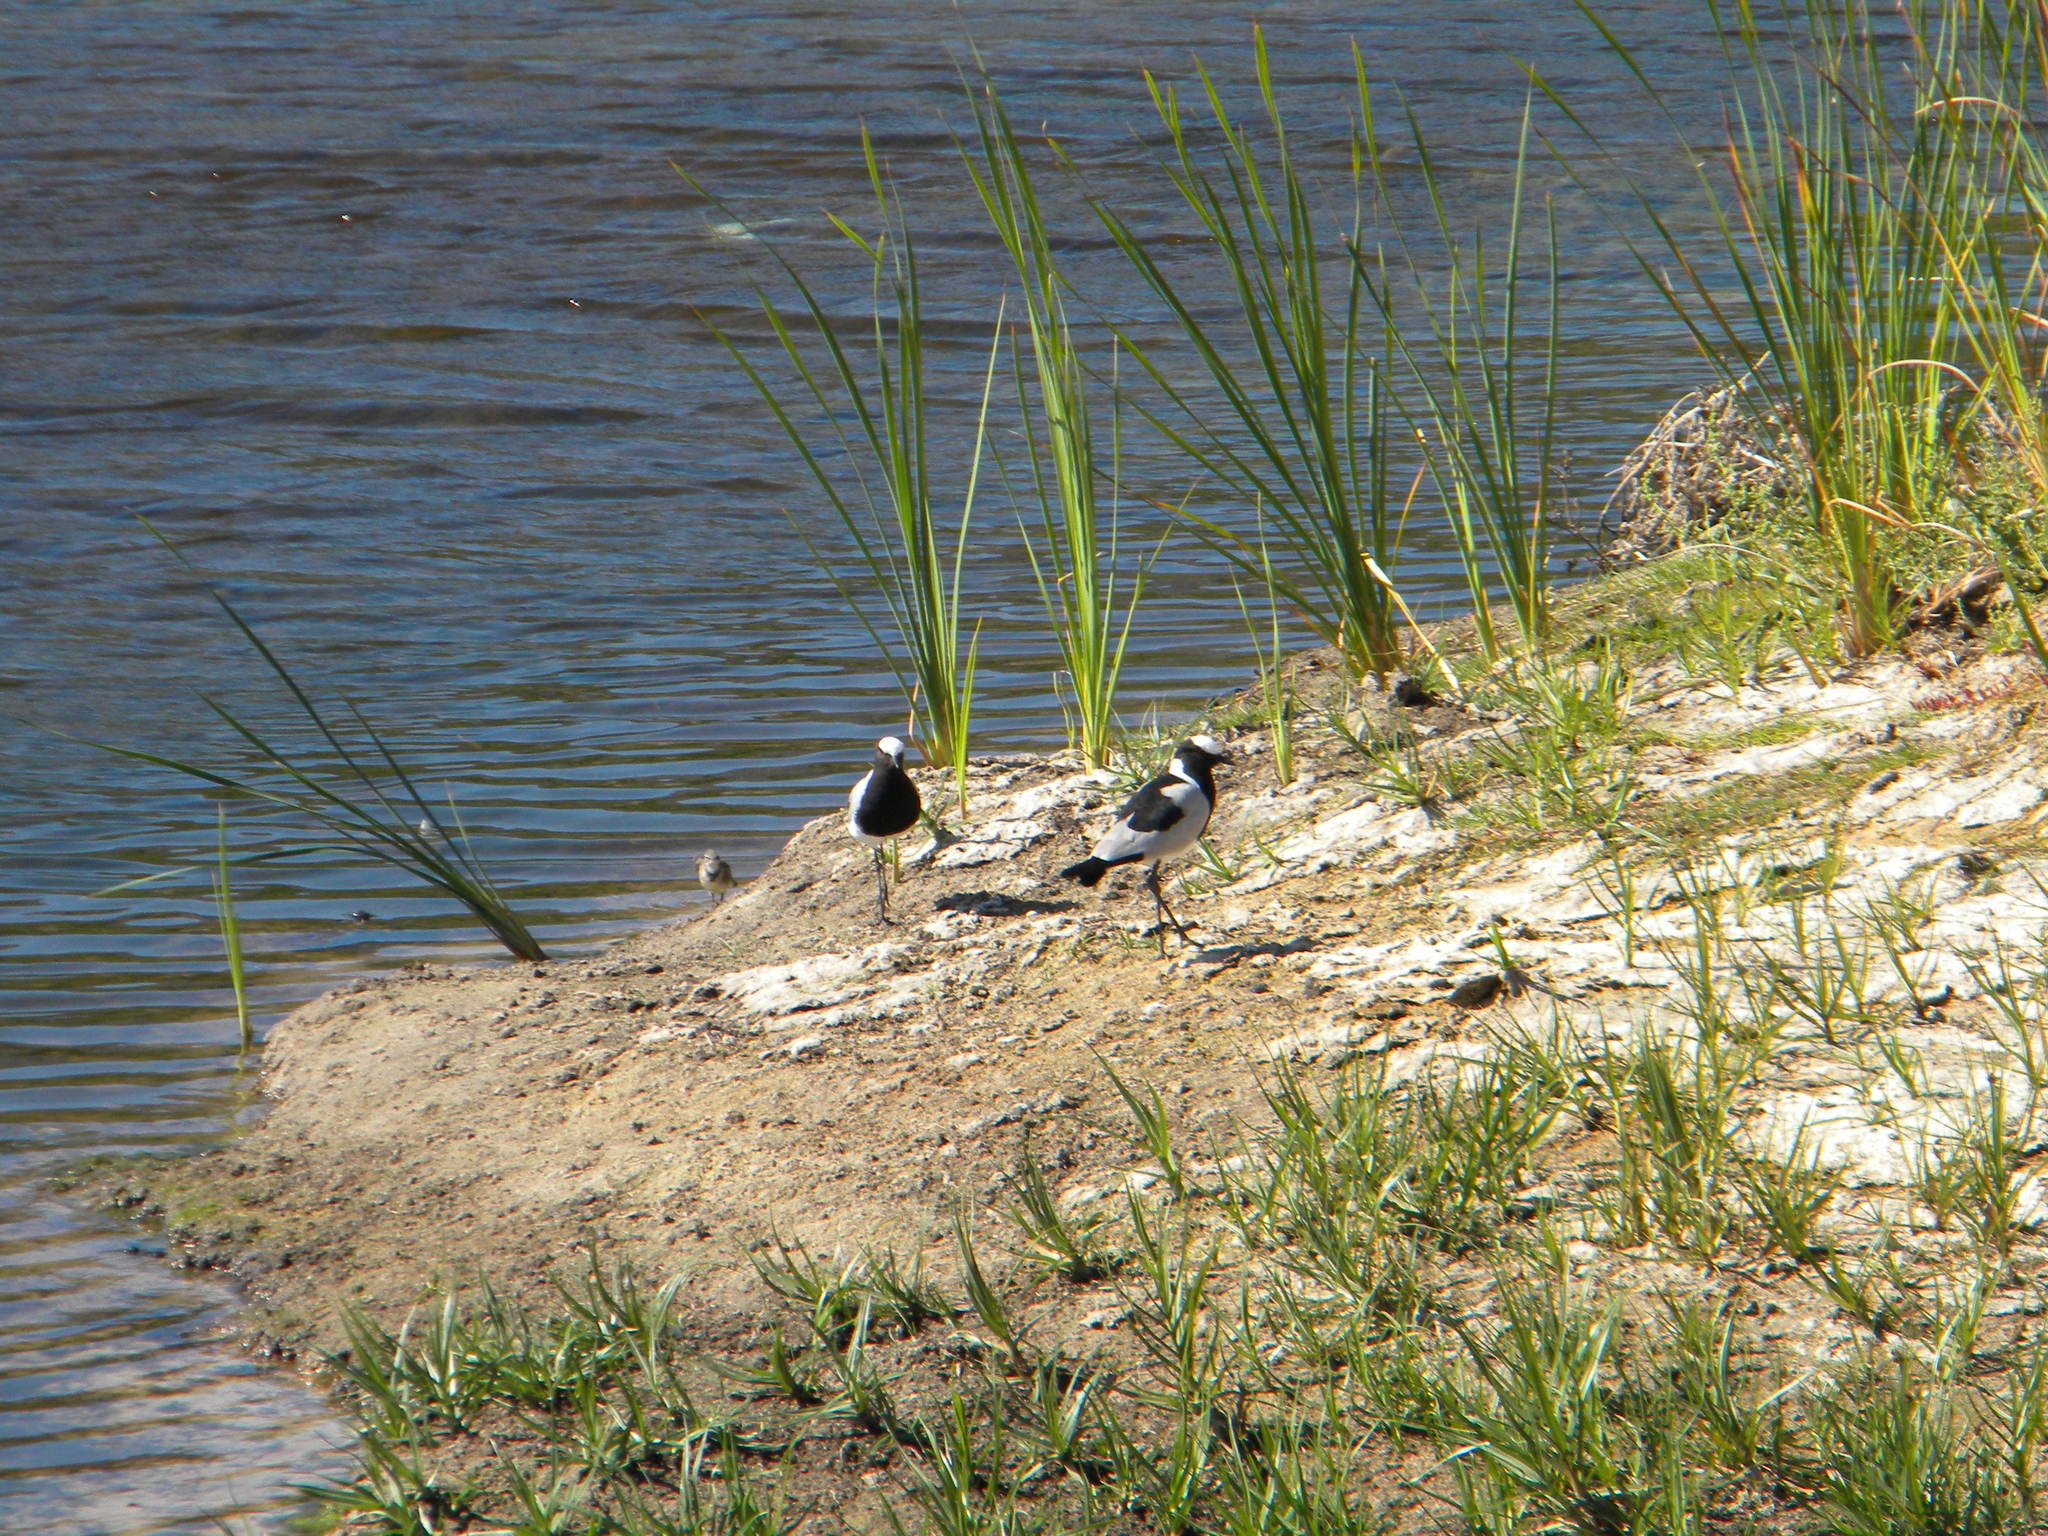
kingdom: Animalia
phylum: Chordata
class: Aves
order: Charadriiformes
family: Charadriidae
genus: Vanellus
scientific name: Vanellus armatus
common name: Blacksmith lapwing
